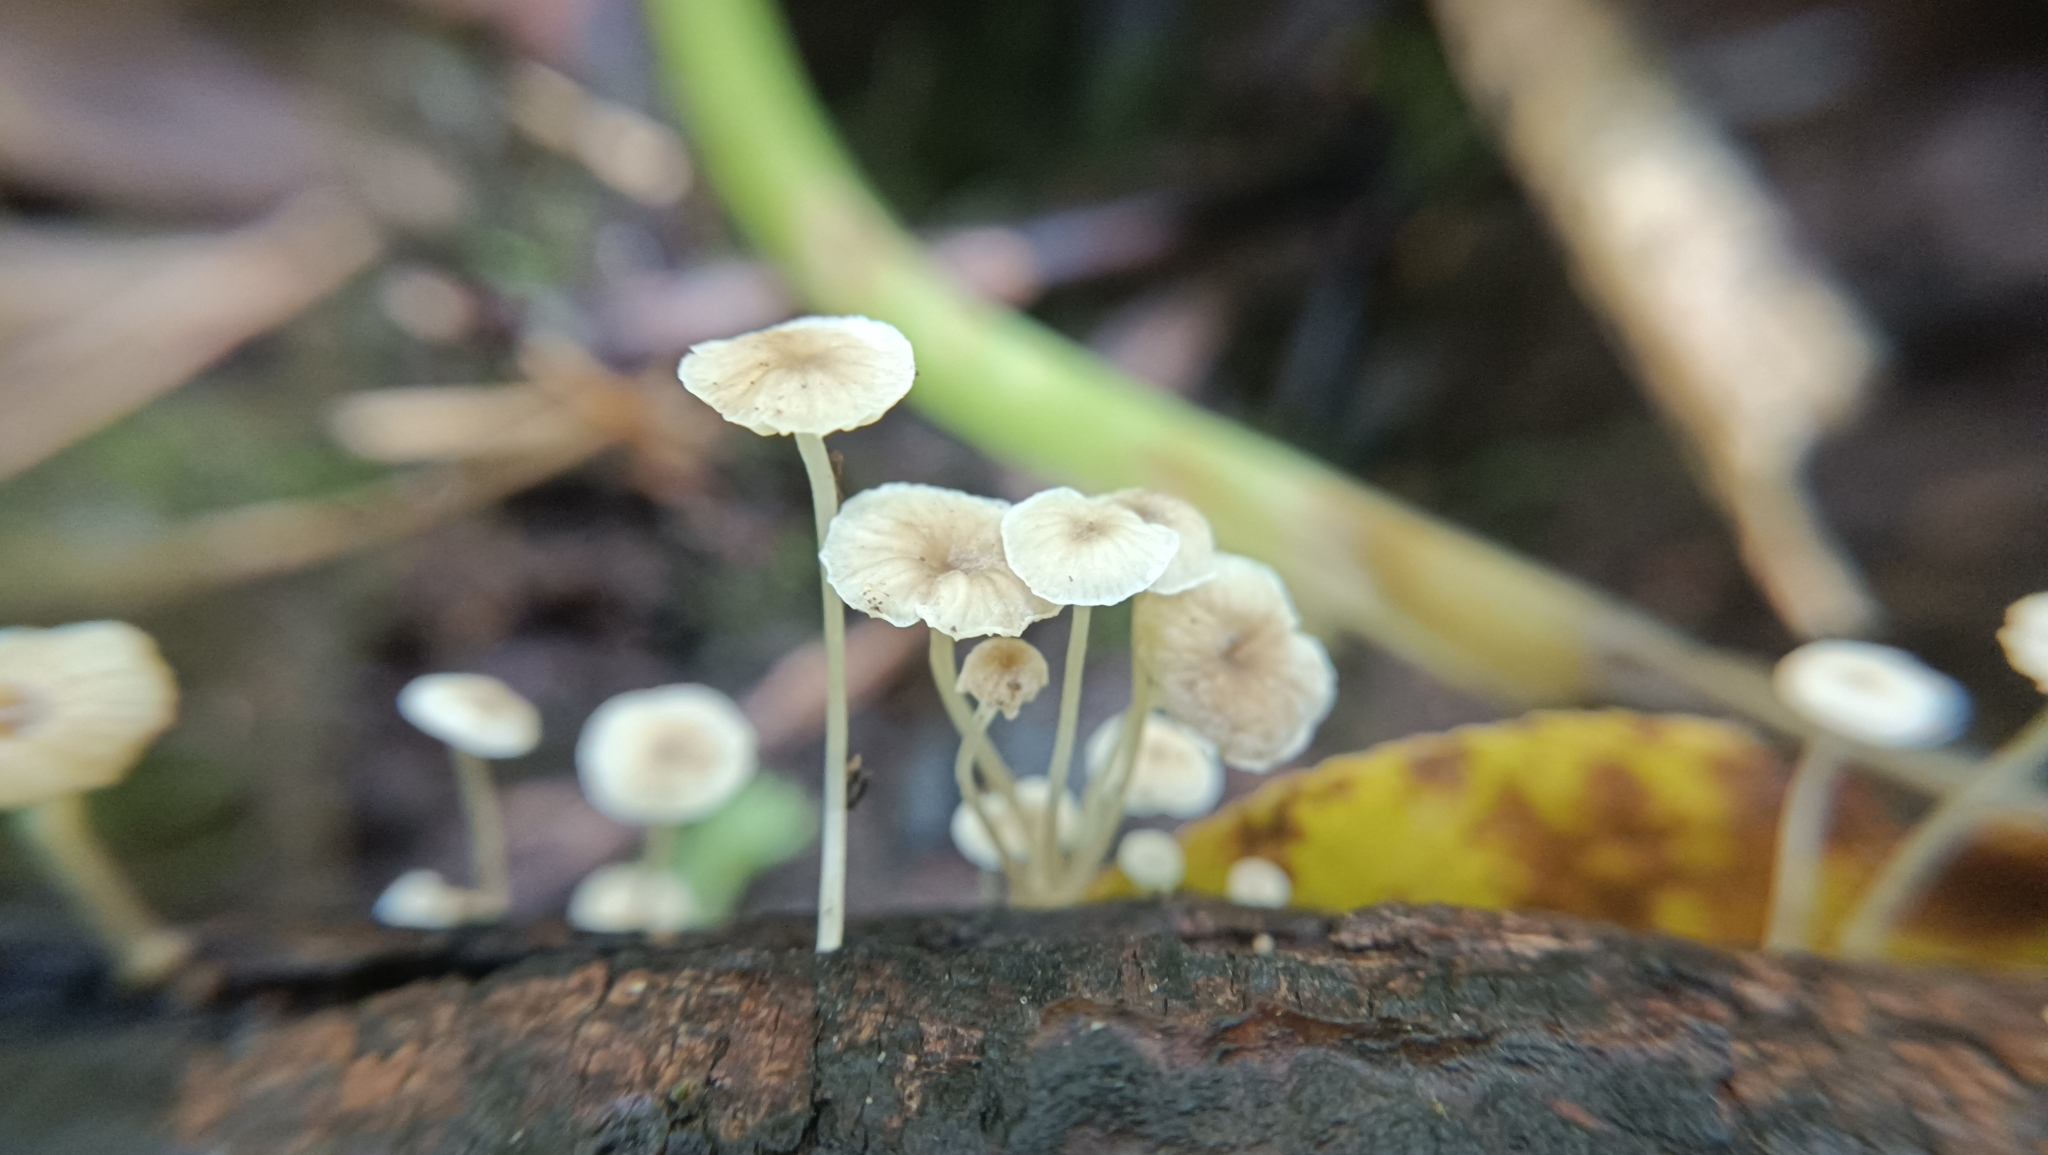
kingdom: Fungi
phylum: Basidiomycota
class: Agaricomycetes
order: Agaricales
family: Porotheleaceae
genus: Phloeomana
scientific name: Phloeomana speirea
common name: Bark bonnet
